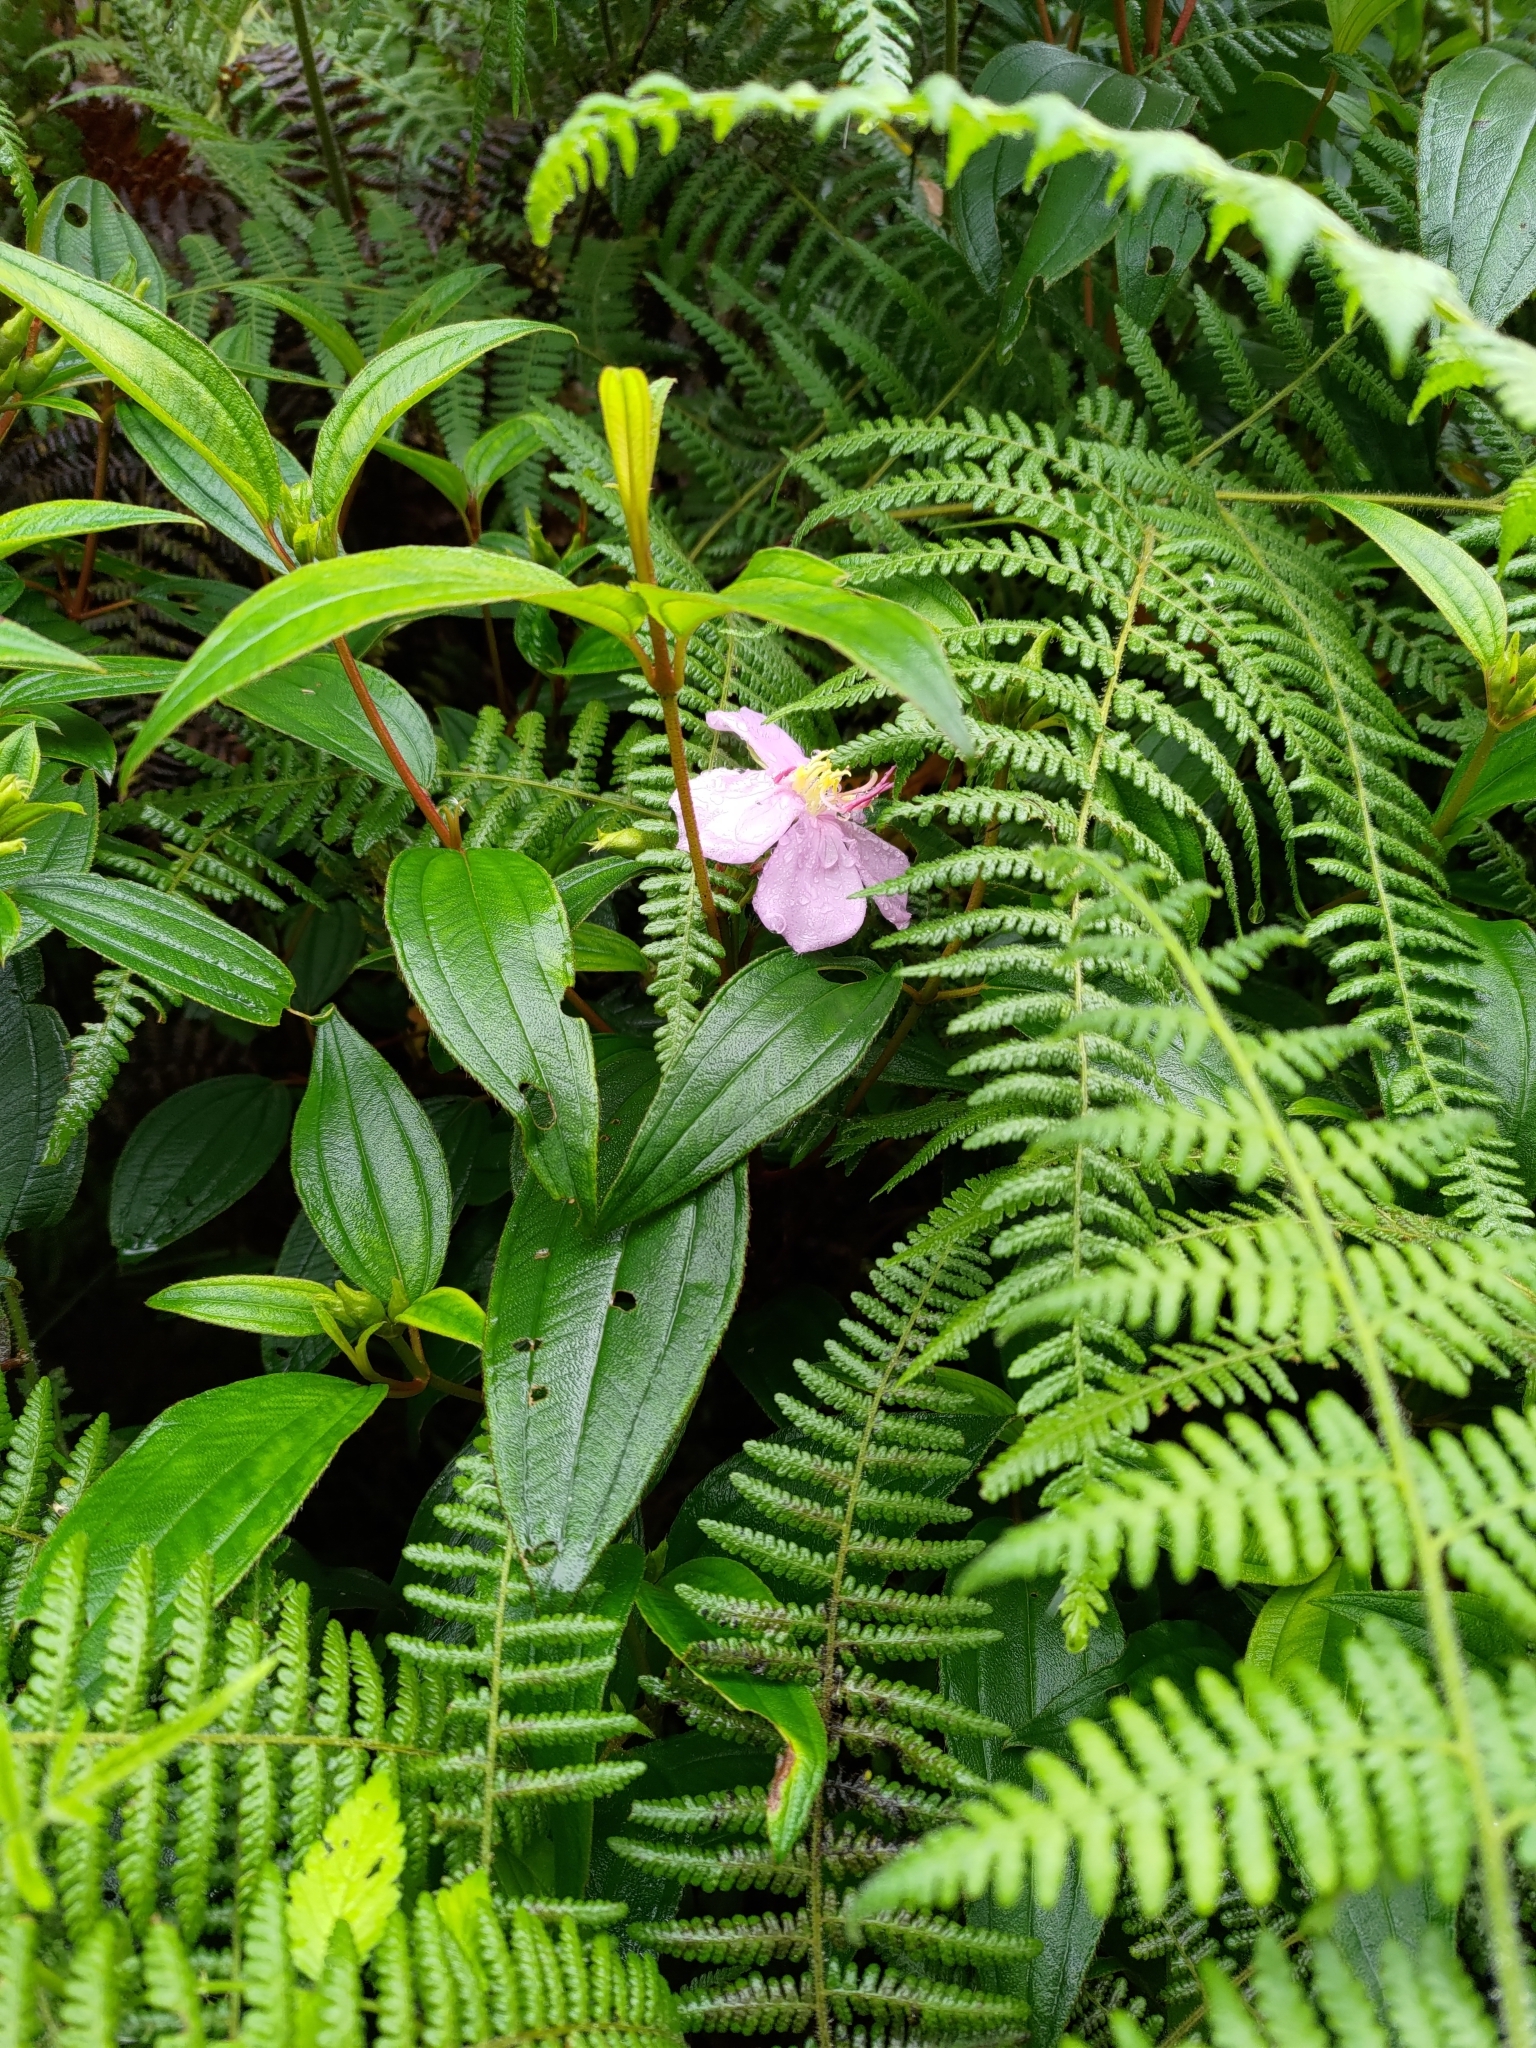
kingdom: Plantae
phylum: Tracheophyta
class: Magnoliopsida
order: Myrtales
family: Melastomataceae
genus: Melastoma
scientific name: Melastoma malabathricum
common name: Indian-rhododendron
